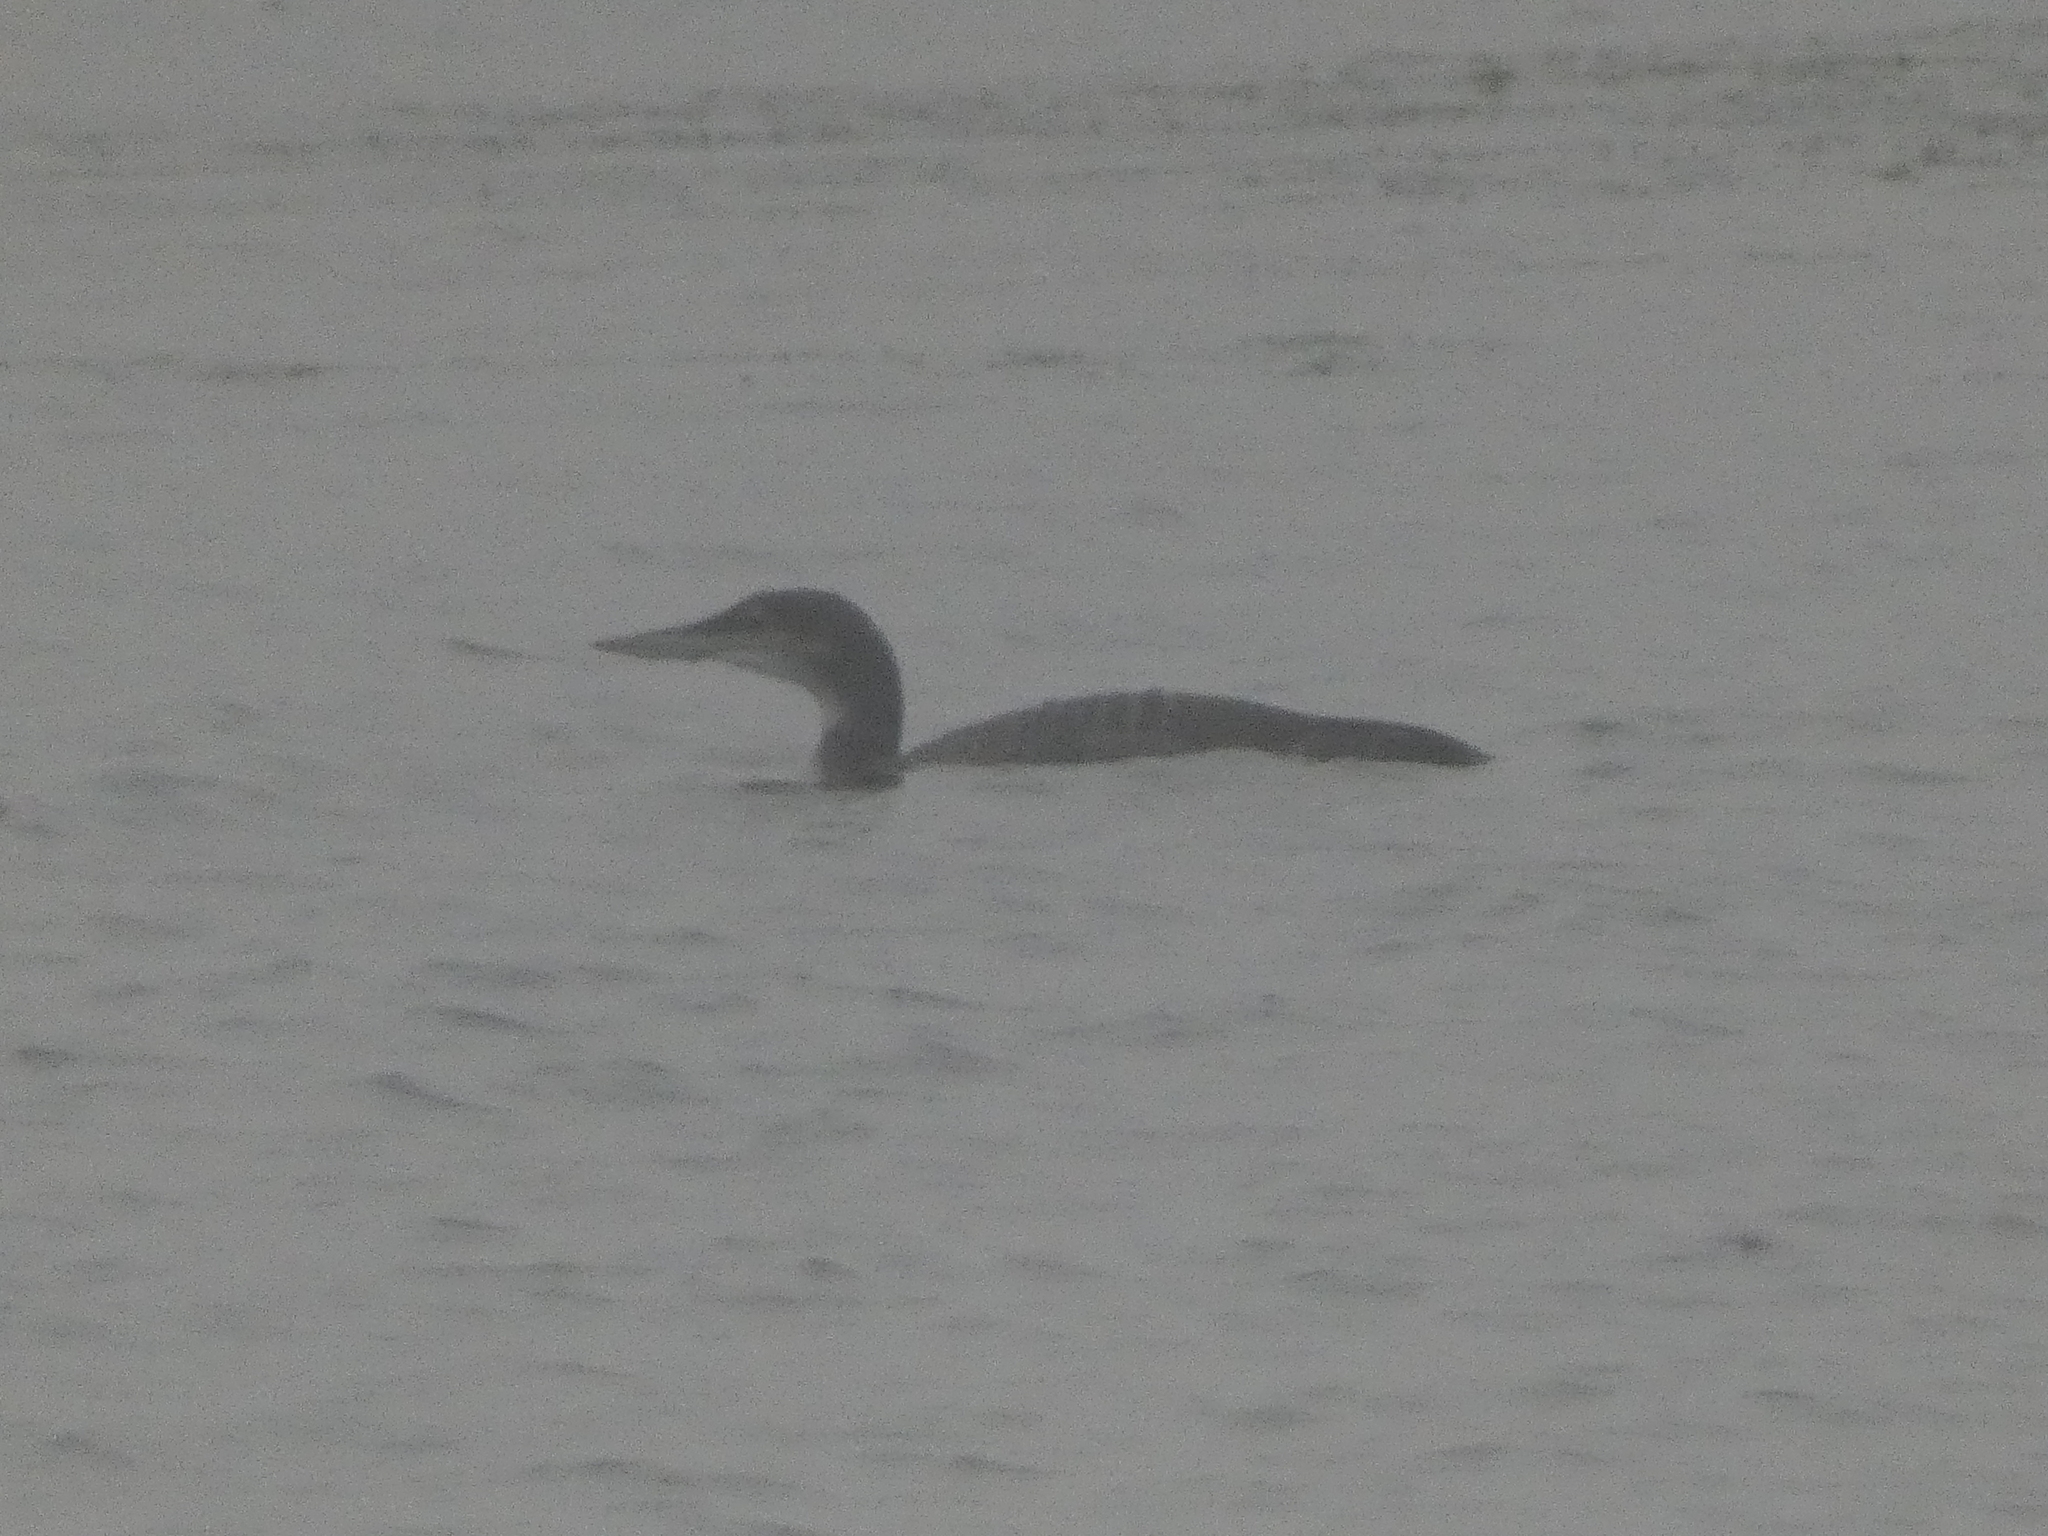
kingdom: Animalia
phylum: Chordata
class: Aves
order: Gaviiformes
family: Gaviidae
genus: Gavia
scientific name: Gavia immer
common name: Common loon
